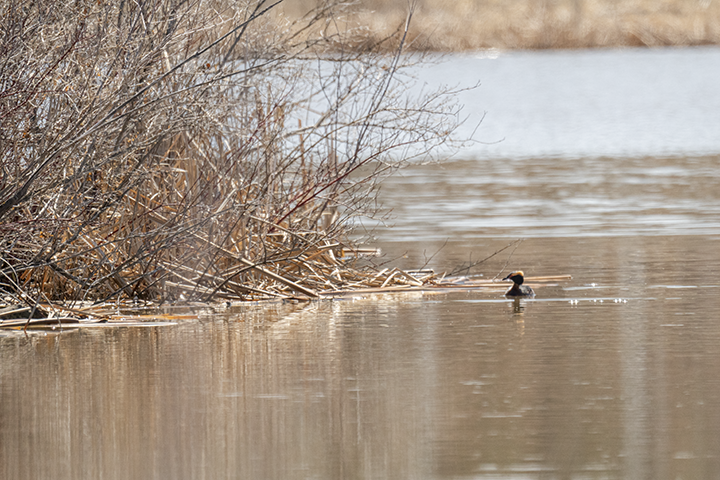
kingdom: Animalia
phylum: Chordata
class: Aves
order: Podicipediformes
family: Podicipedidae
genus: Podiceps
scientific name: Podiceps auritus
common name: Horned grebe
